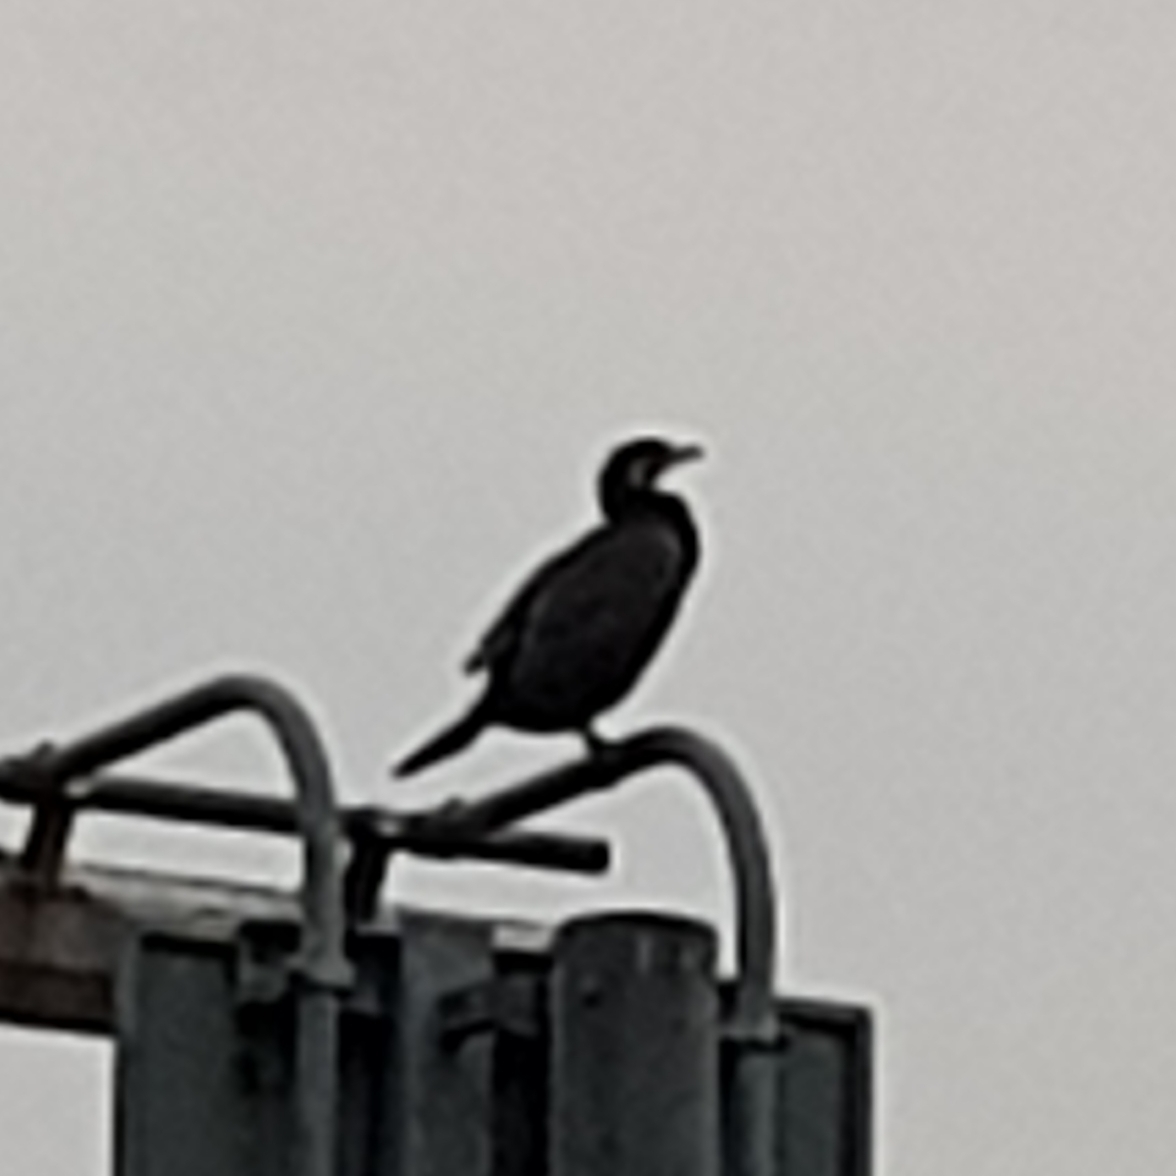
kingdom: Animalia
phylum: Chordata
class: Aves
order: Suliformes
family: Phalacrocoracidae
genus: Phalacrocorax
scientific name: Phalacrocorax carbo
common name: Great cormorant
